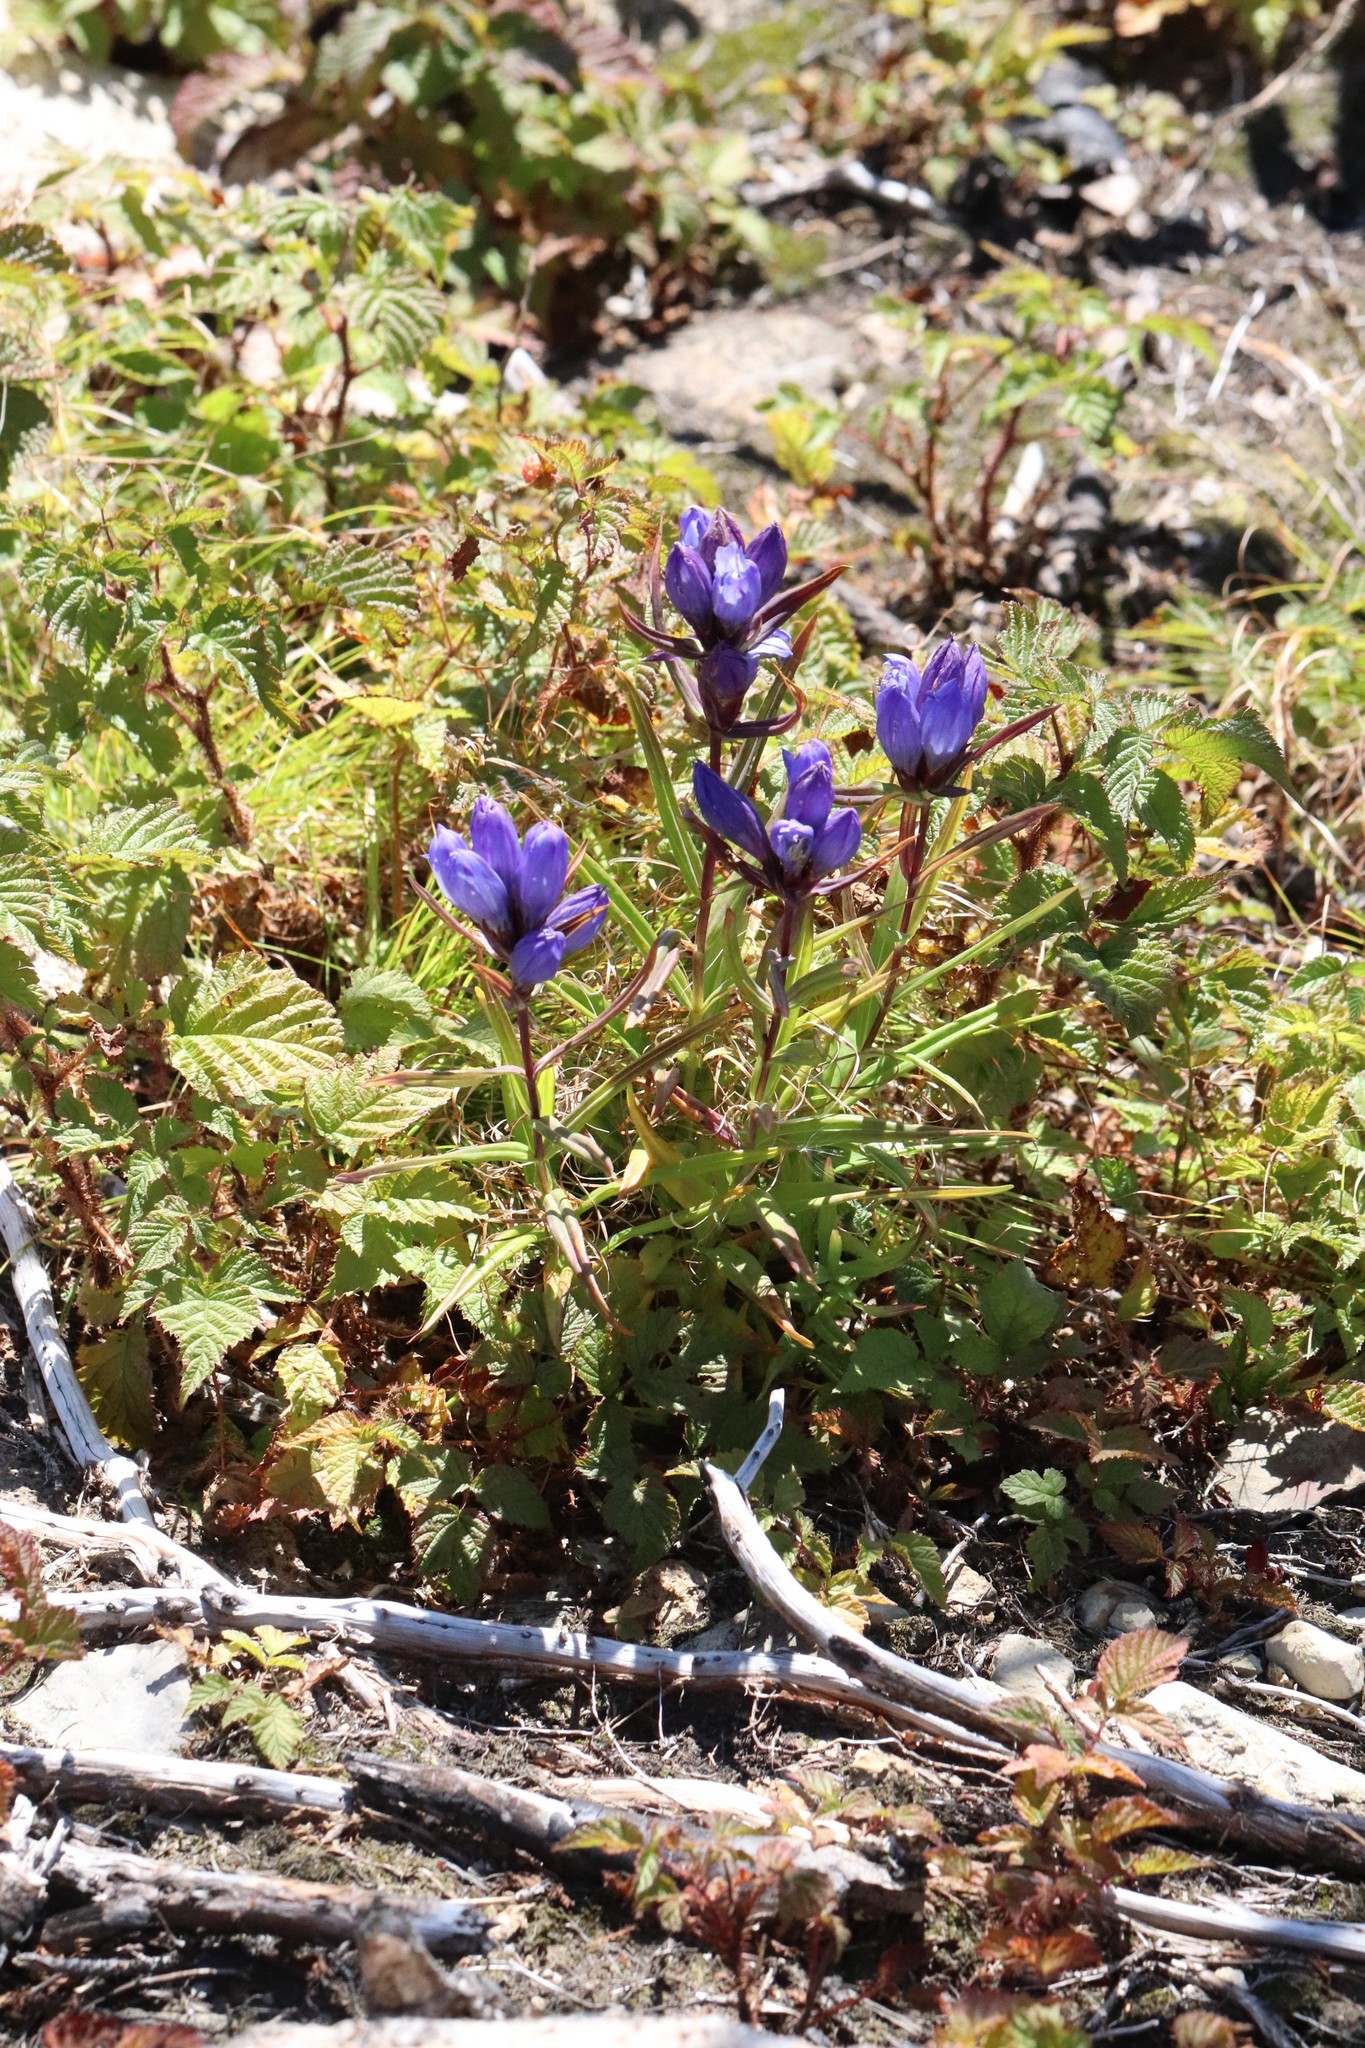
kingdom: Plantae
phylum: Tracheophyta
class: Magnoliopsida
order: Gentianales
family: Gentianaceae
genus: Gentiana
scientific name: Gentiana triflora
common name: Three-flower gentian
